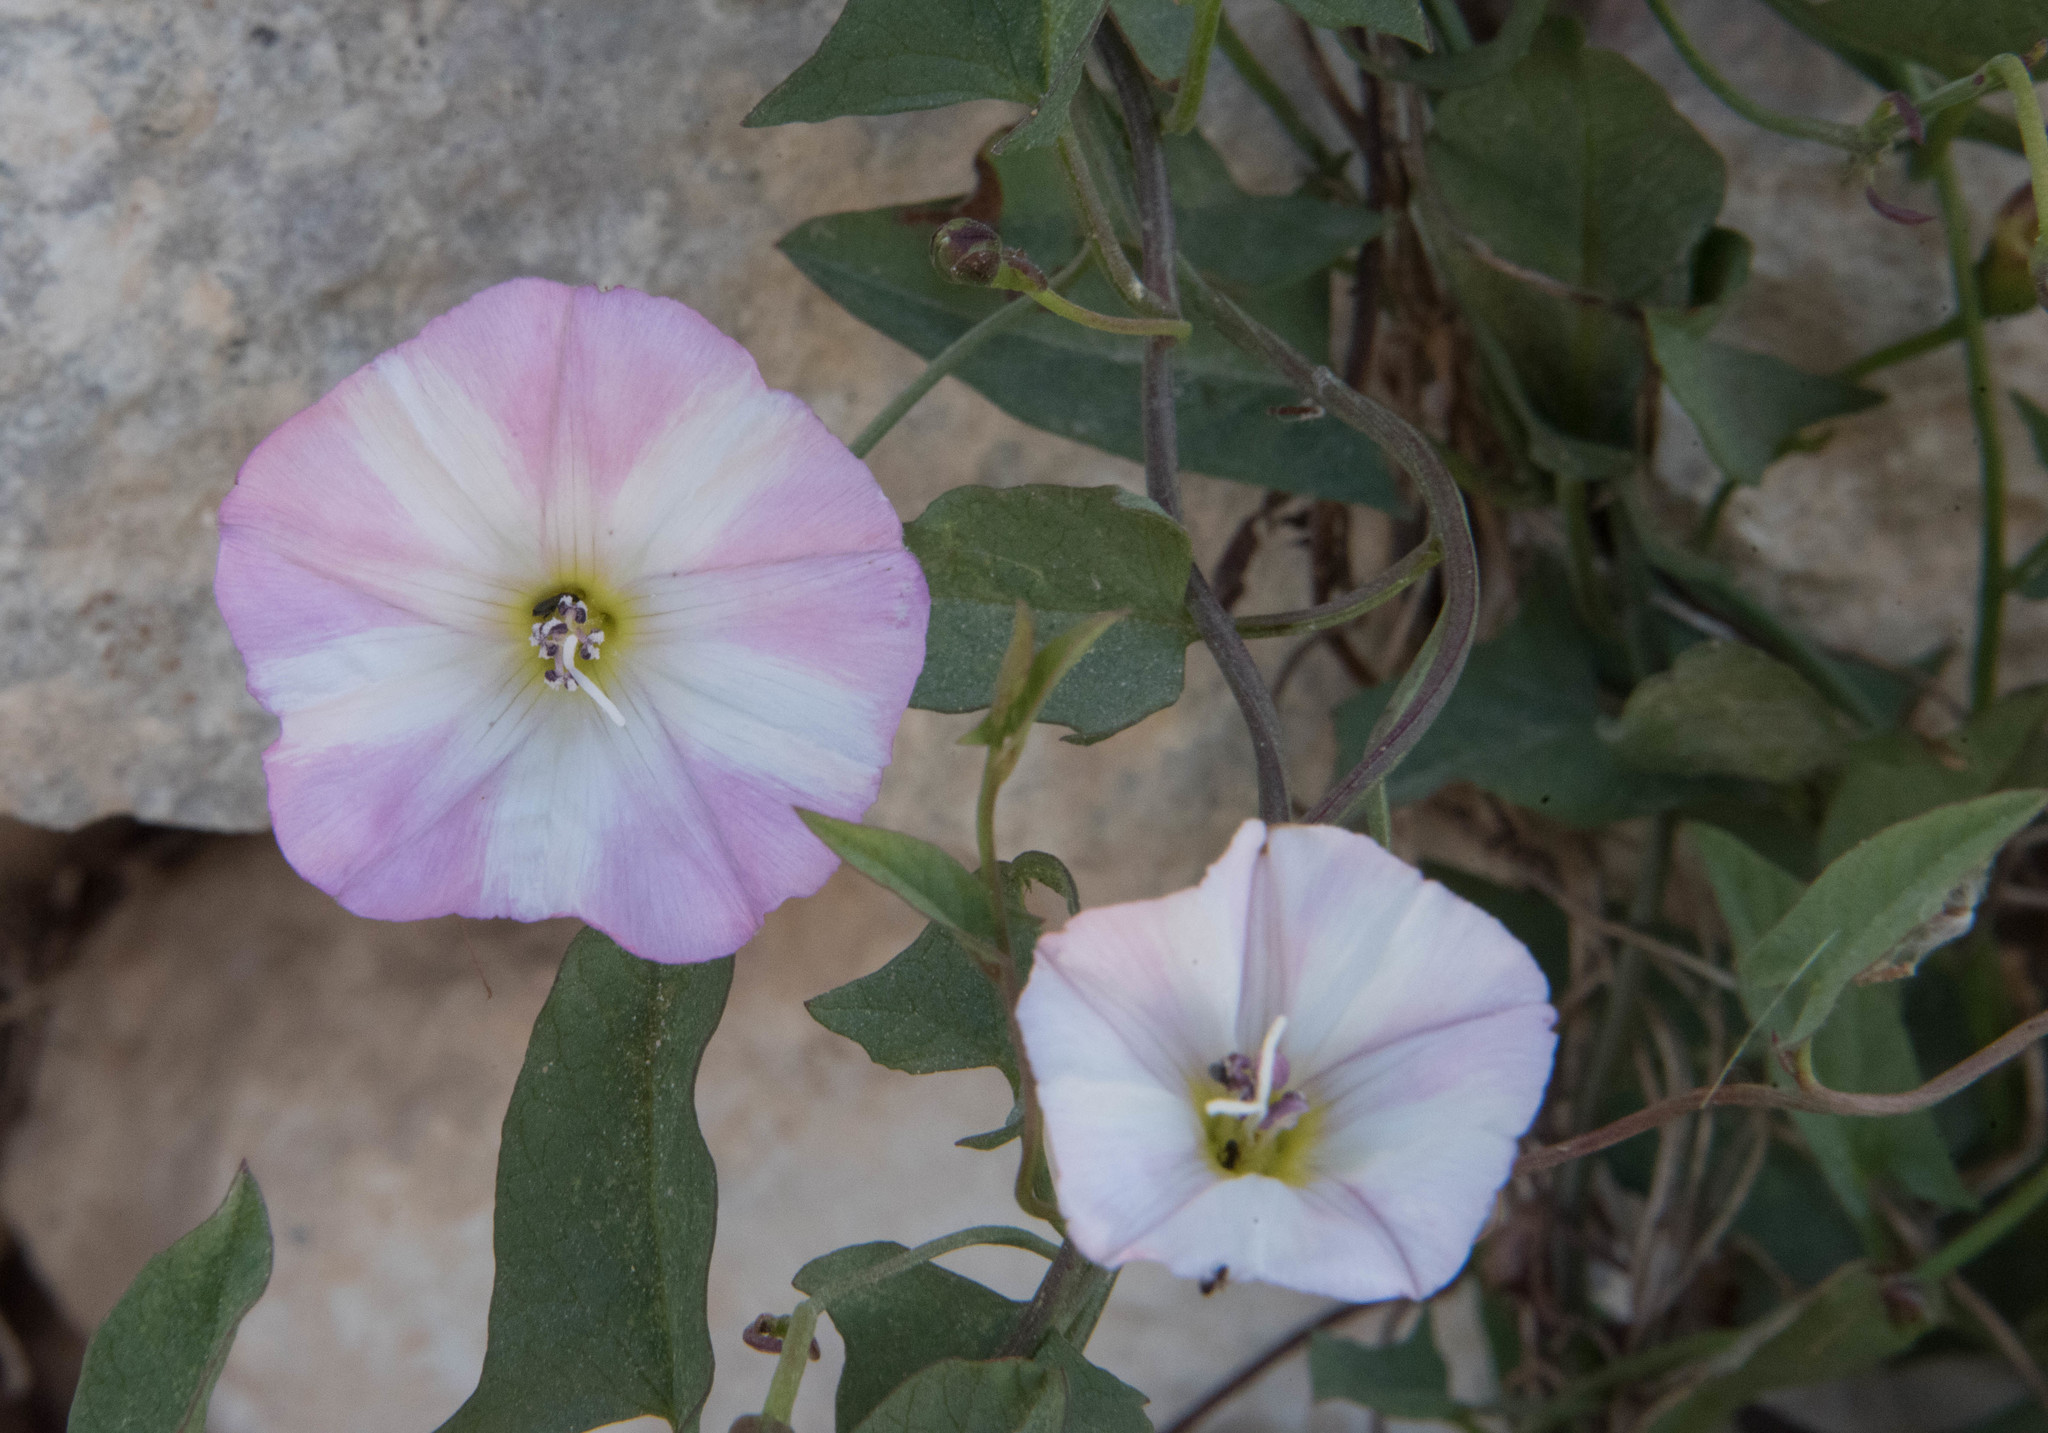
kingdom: Plantae
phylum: Tracheophyta
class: Magnoliopsida
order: Solanales
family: Convolvulaceae
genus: Convolvulus
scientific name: Convolvulus arvensis
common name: Field bindweed
